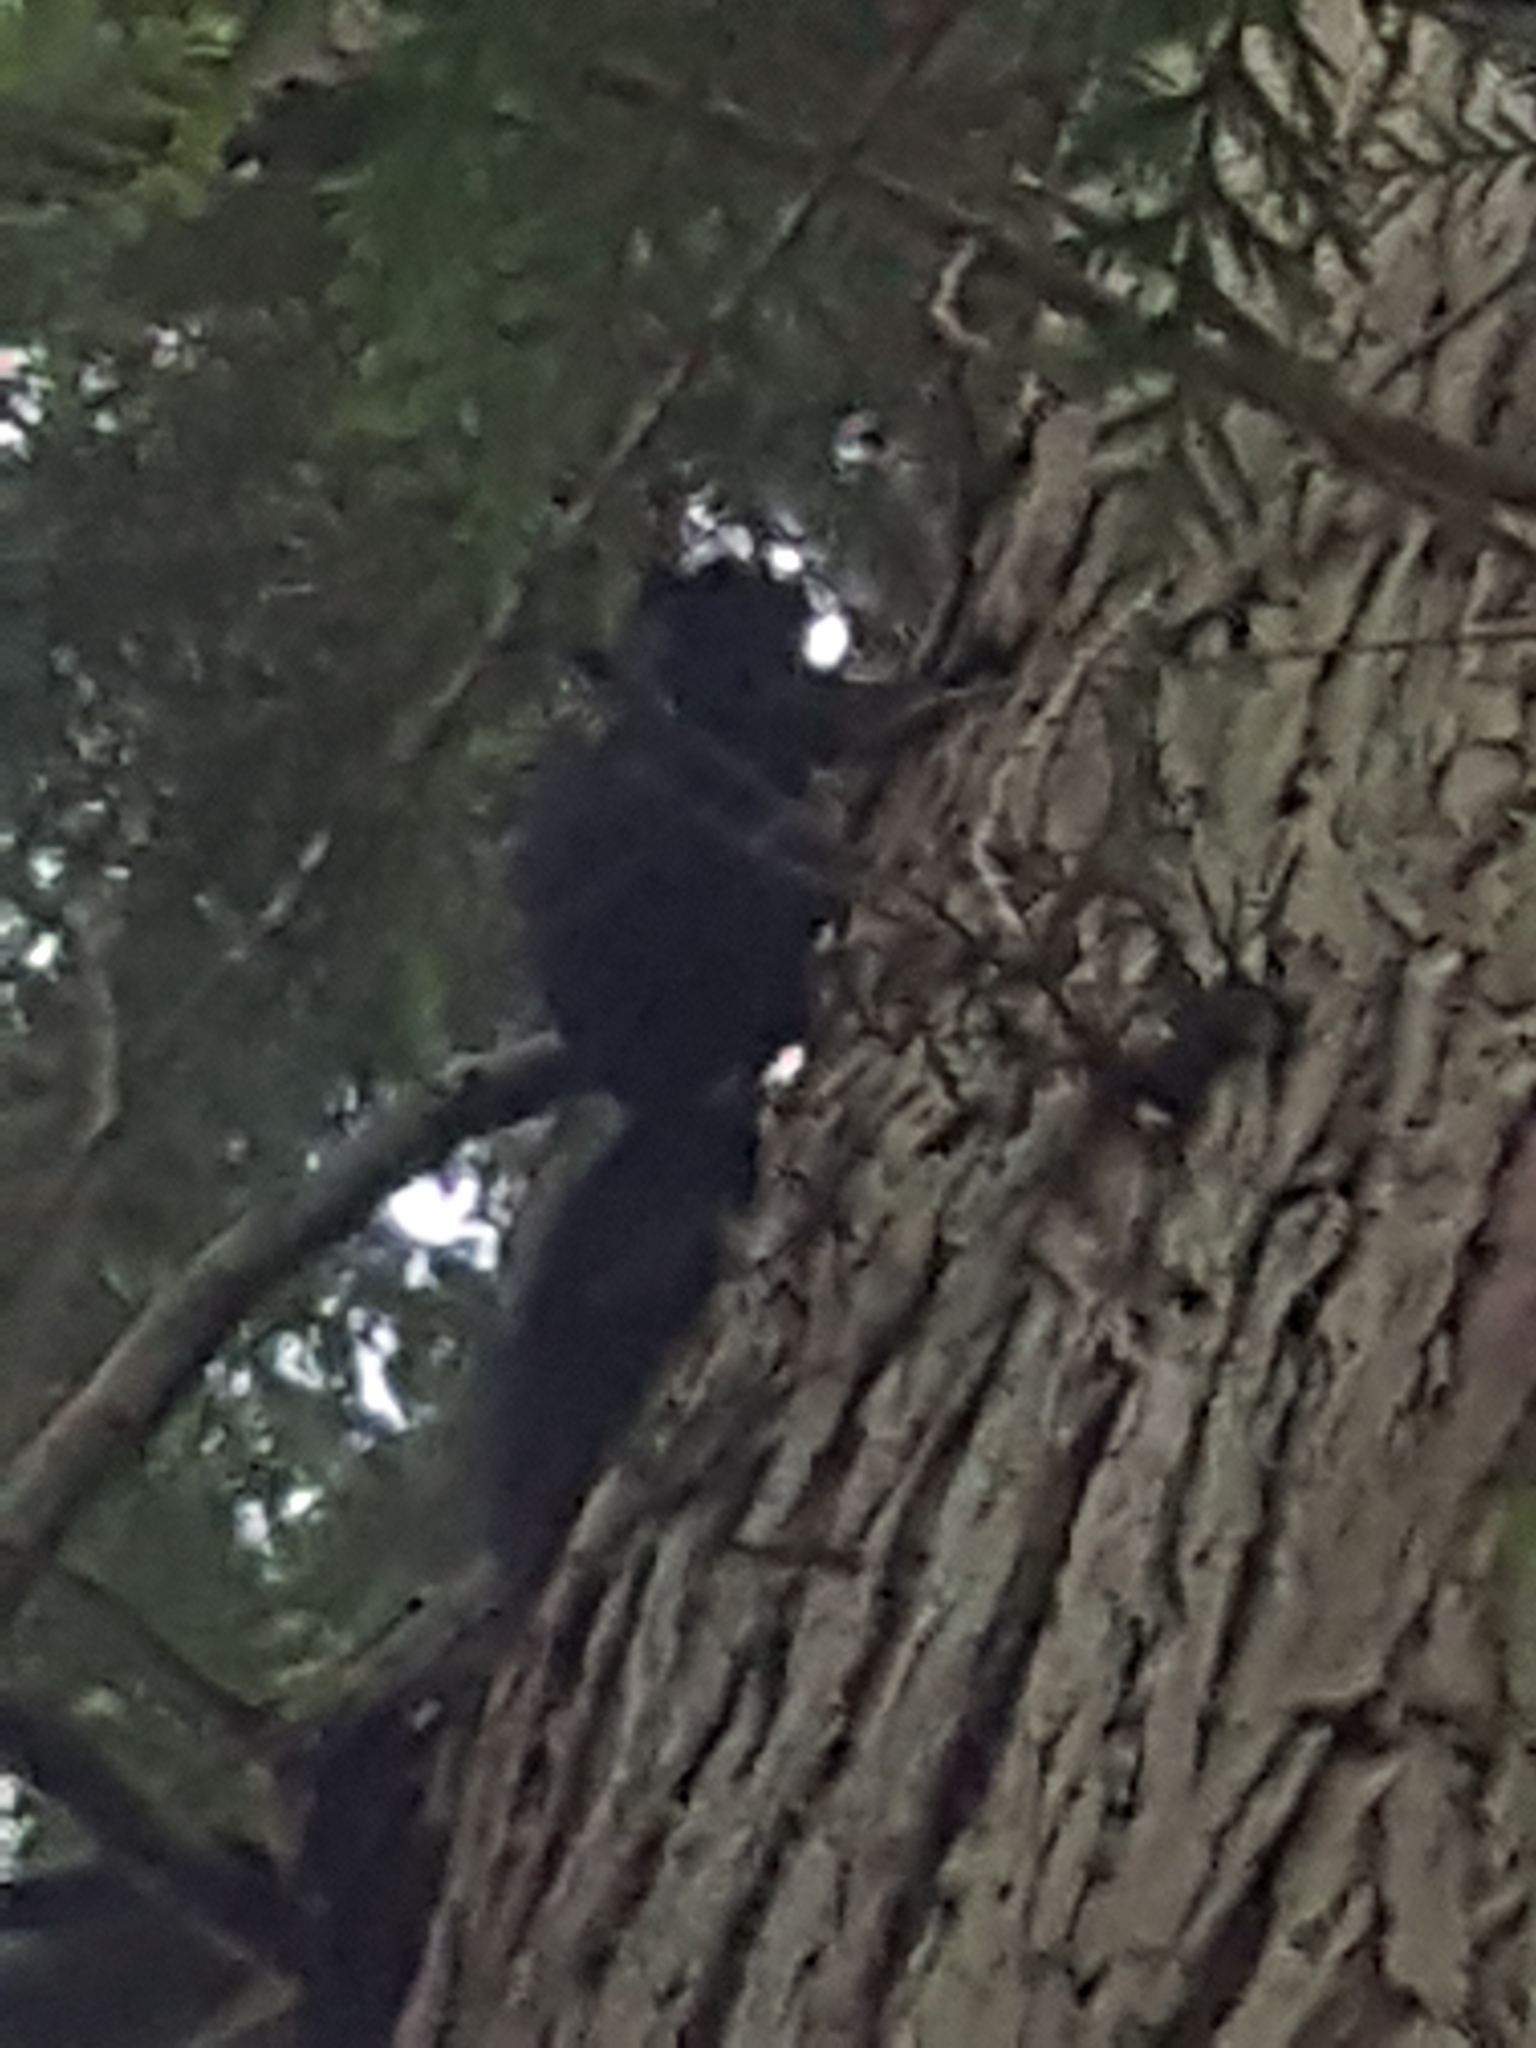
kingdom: Animalia
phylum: Chordata
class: Mammalia
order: Rodentia
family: Sciuridae
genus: Sciurus
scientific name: Sciurus carolinensis
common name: Eastern gray squirrel
